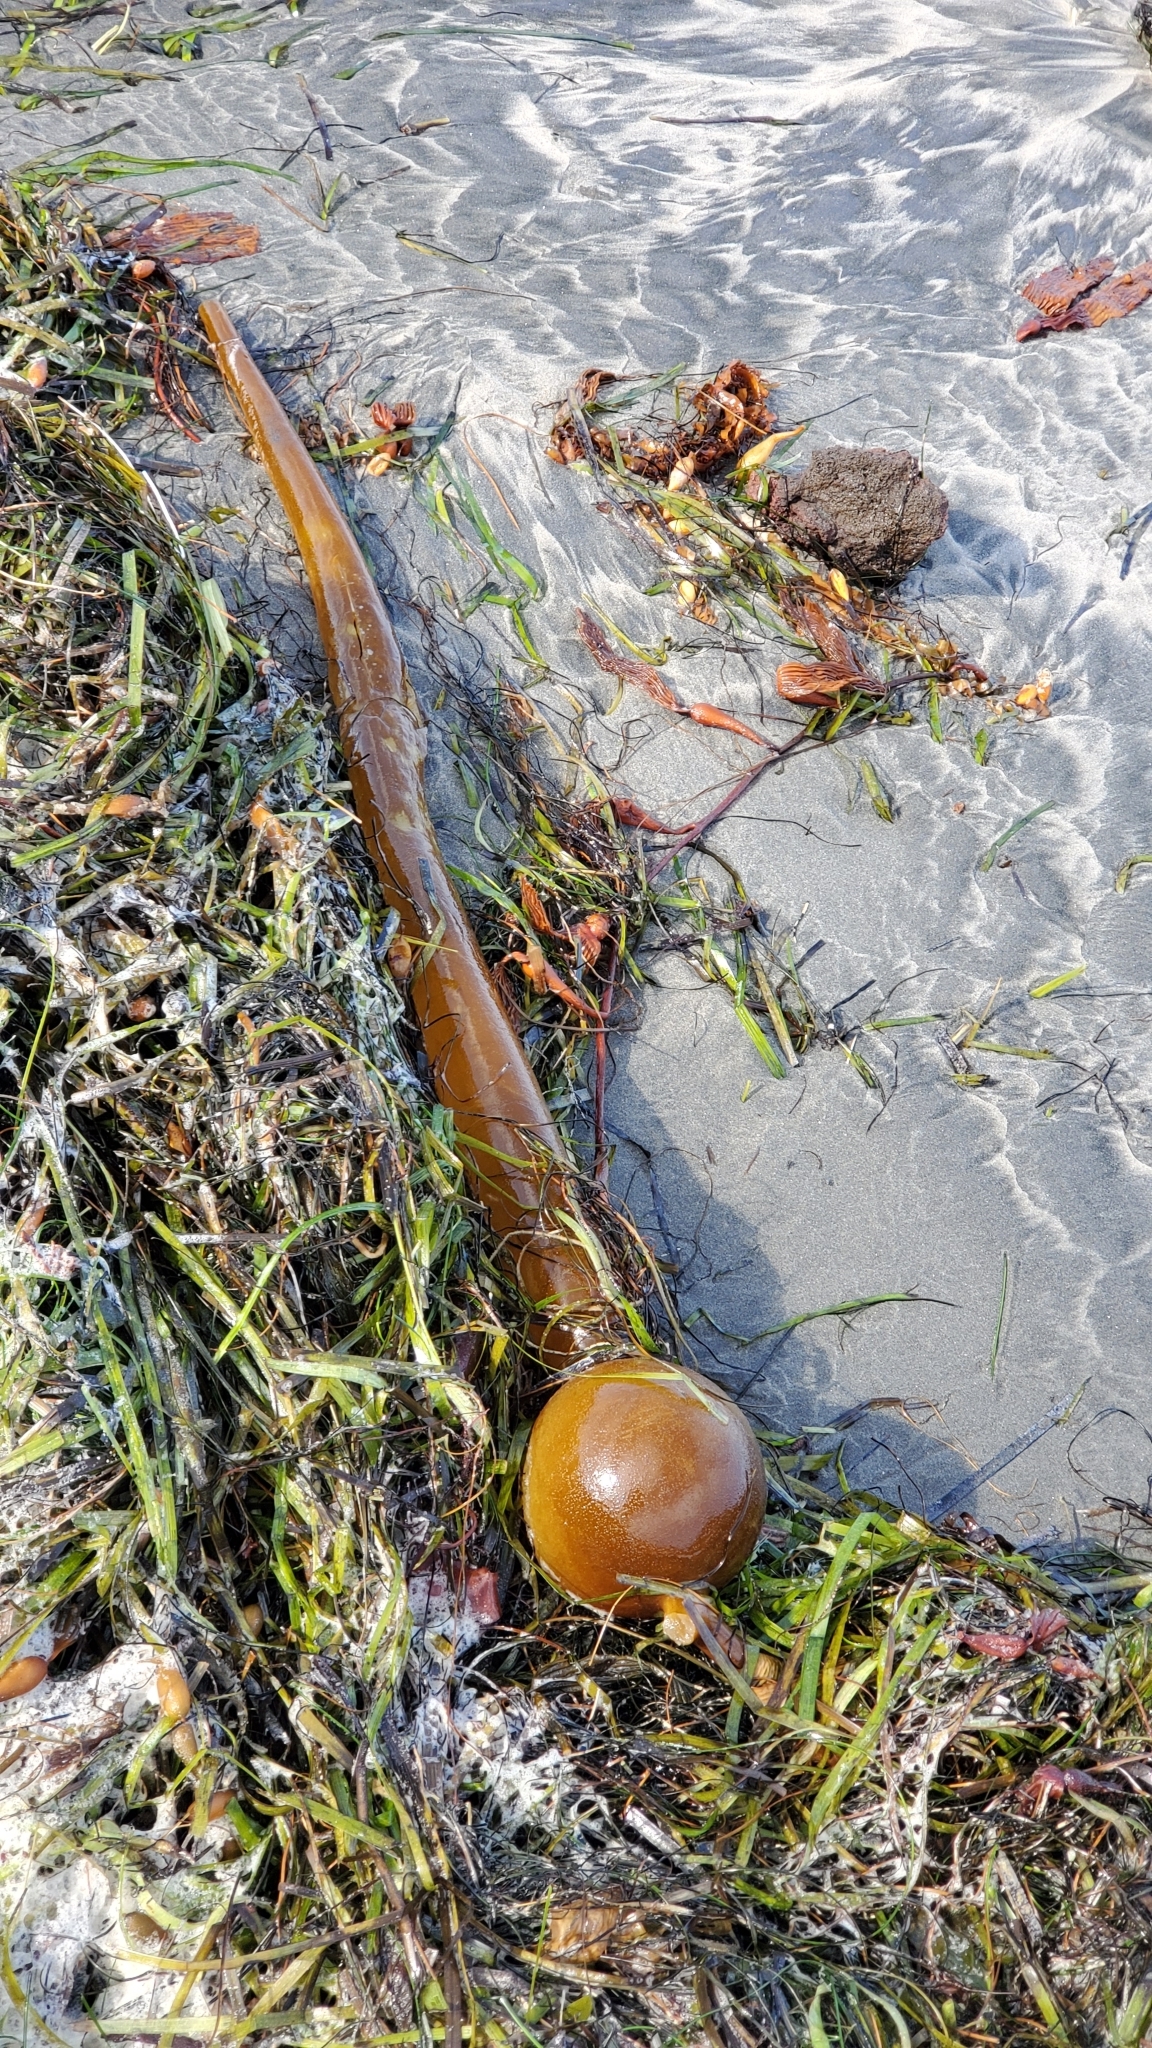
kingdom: Chromista
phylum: Ochrophyta
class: Phaeophyceae
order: Laminariales
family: Laminariaceae
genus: Pelagophycus
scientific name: Pelagophycus porra
